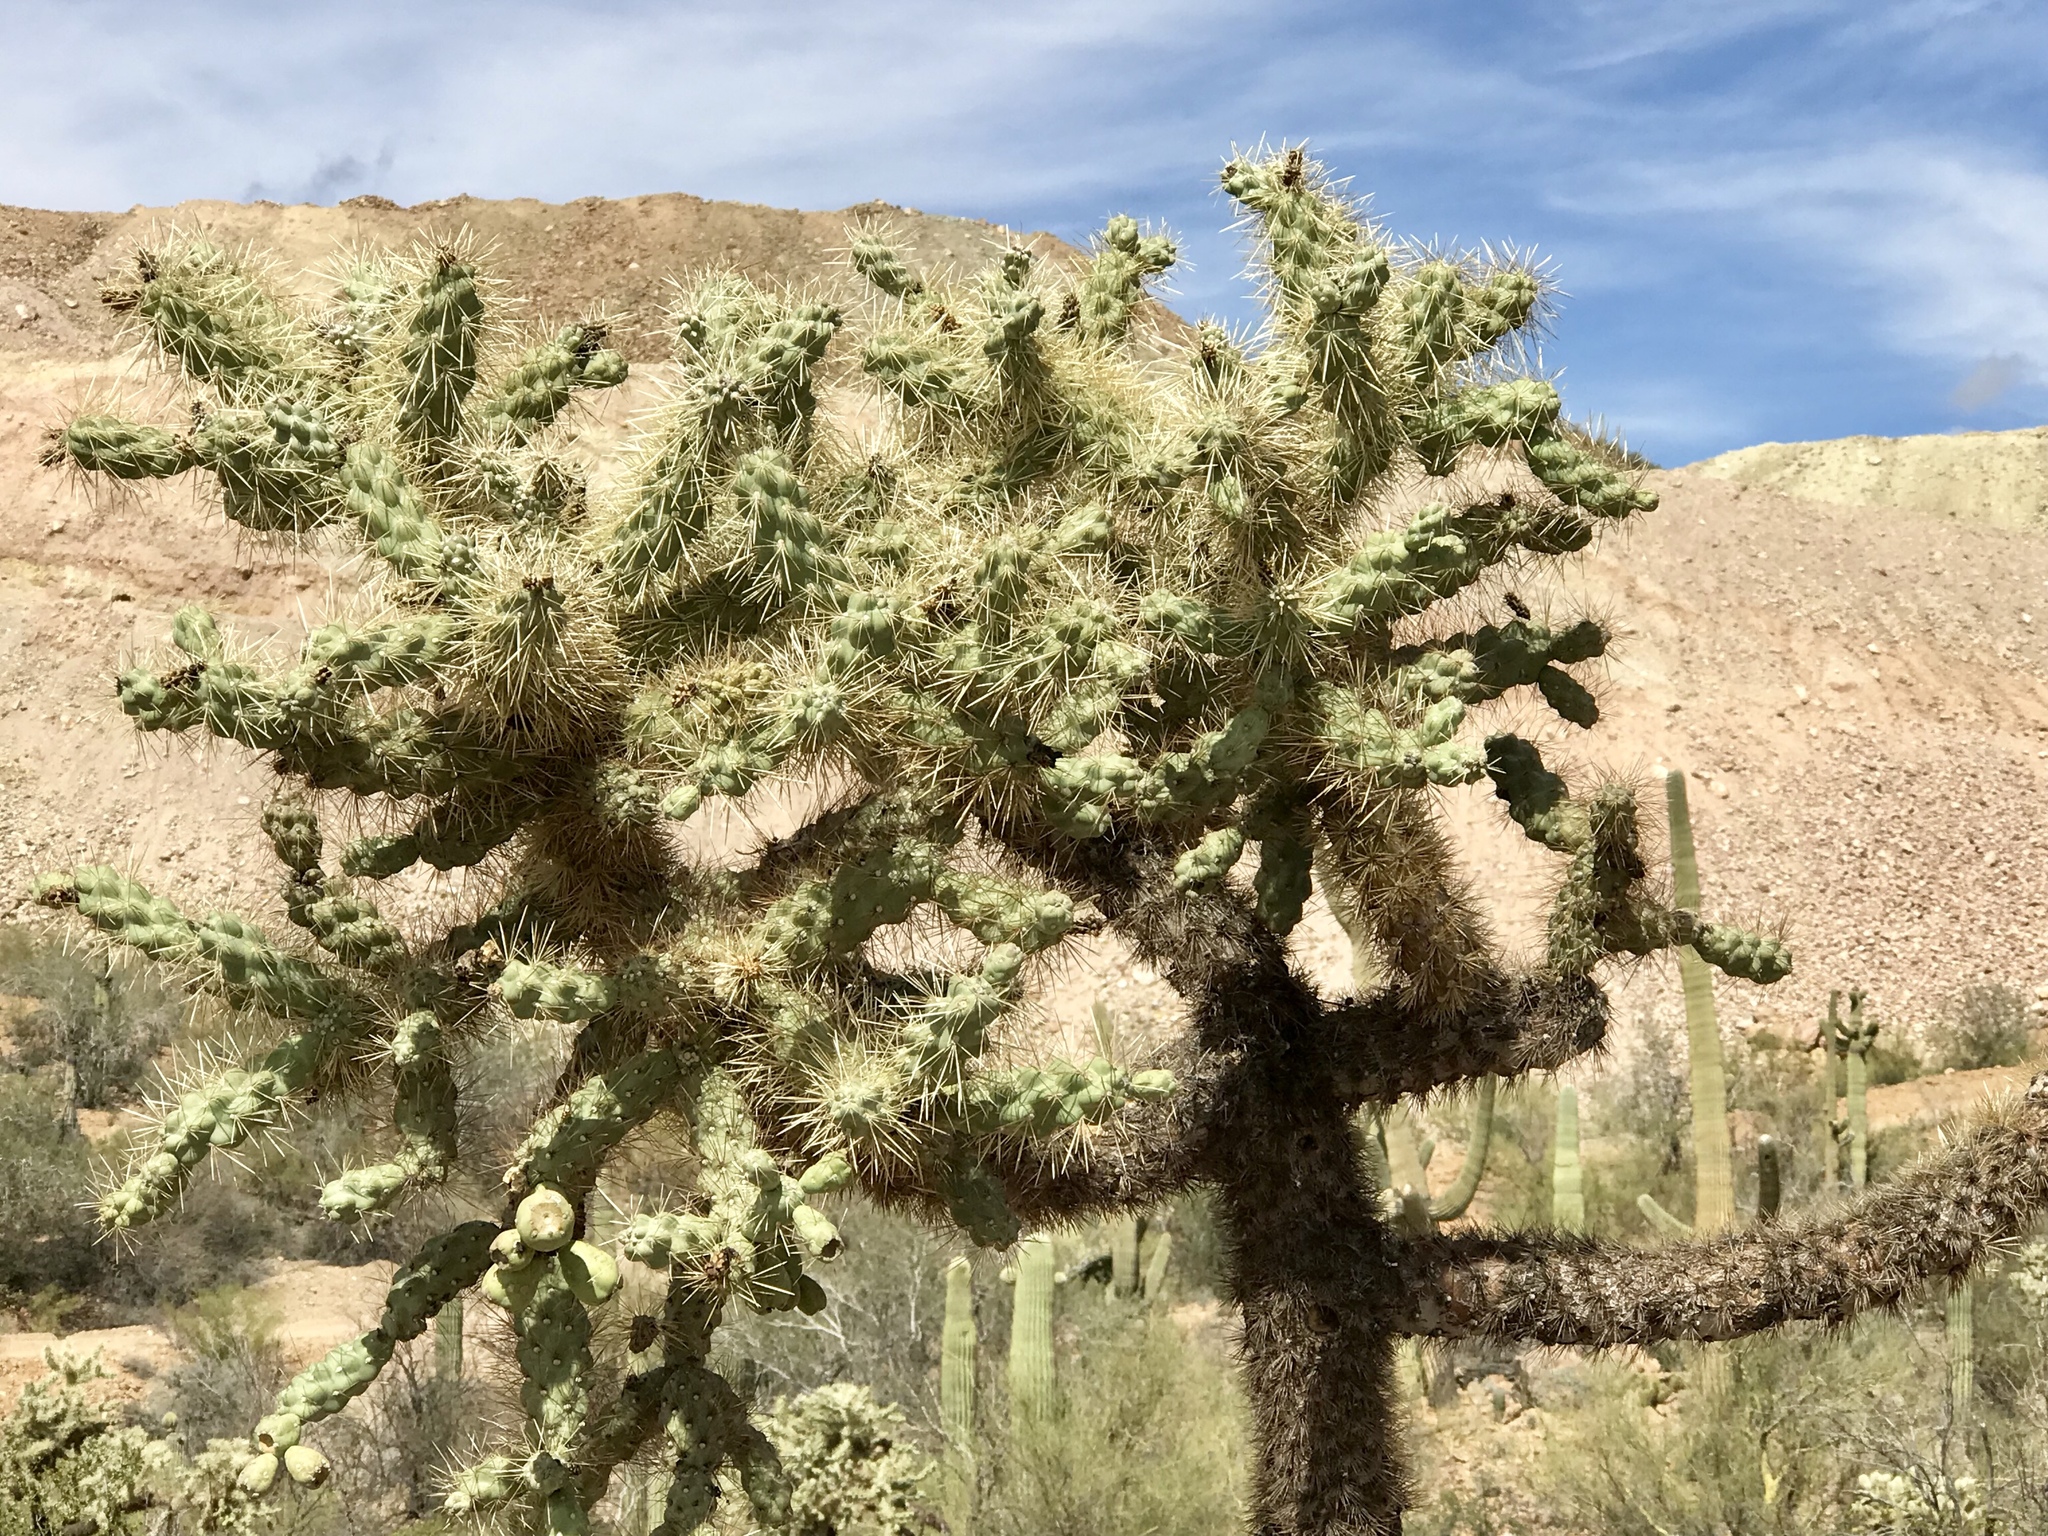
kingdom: Plantae
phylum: Tracheophyta
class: Magnoliopsida
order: Caryophyllales
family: Cactaceae
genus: Cylindropuntia
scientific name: Cylindropuntia fulgida
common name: Jumping cholla
